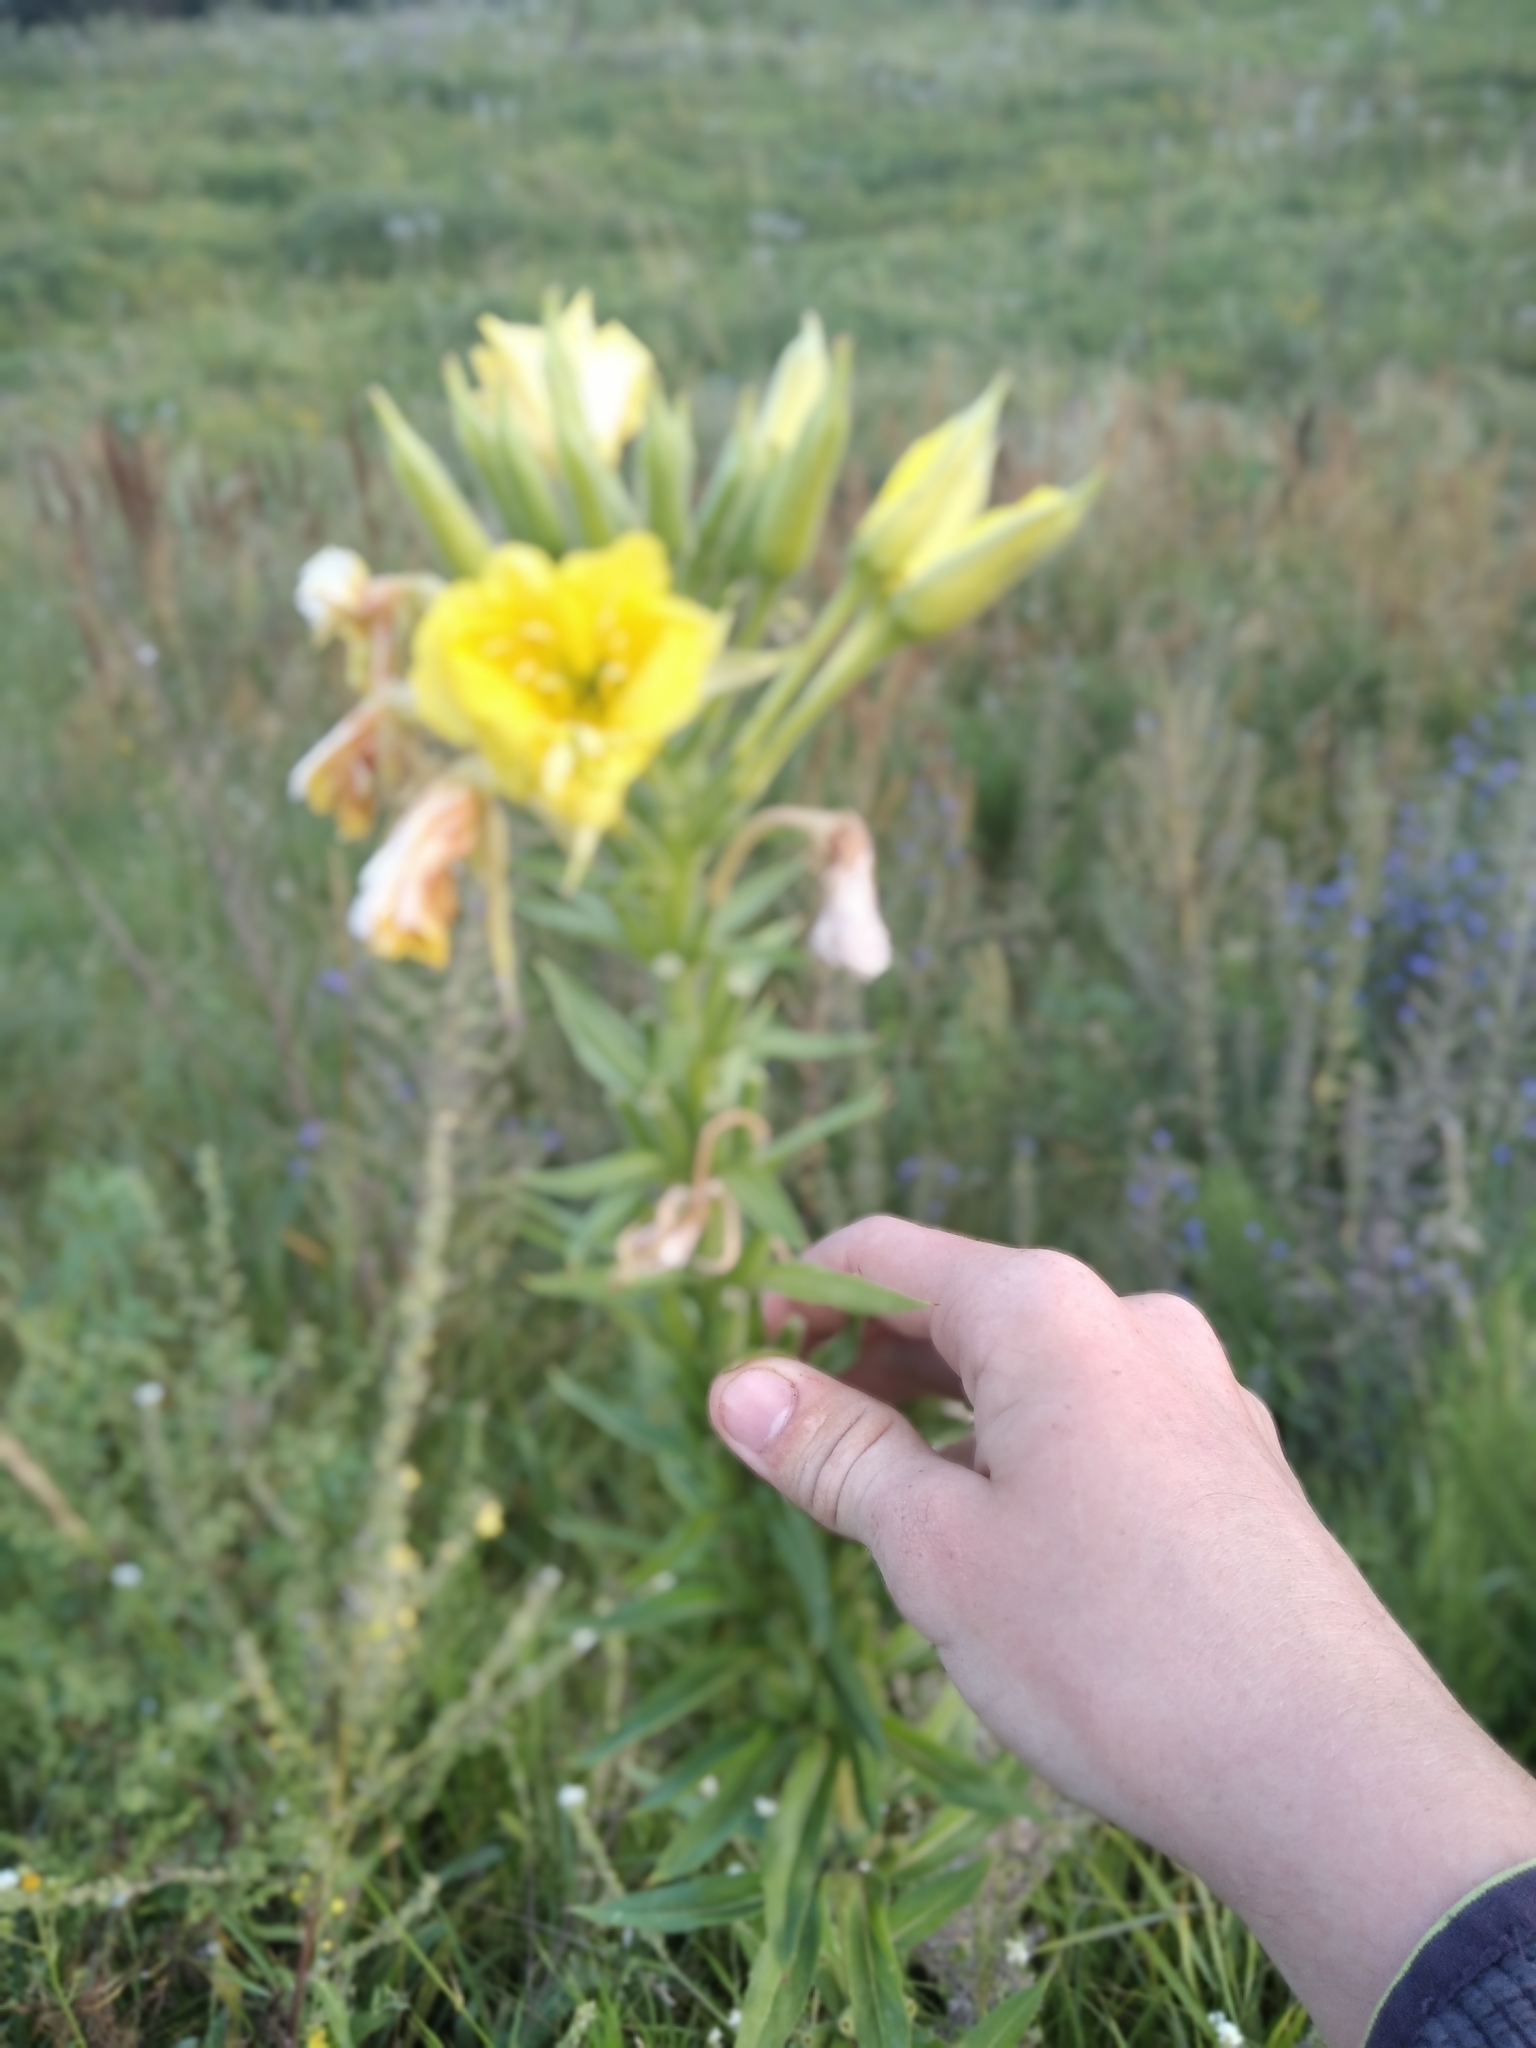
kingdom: Plantae
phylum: Tracheophyta
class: Magnoliopsida
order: Myrtales
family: Onagraceae
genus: Oenothera
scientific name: Oenothera biennis
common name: Common evening-primrose
